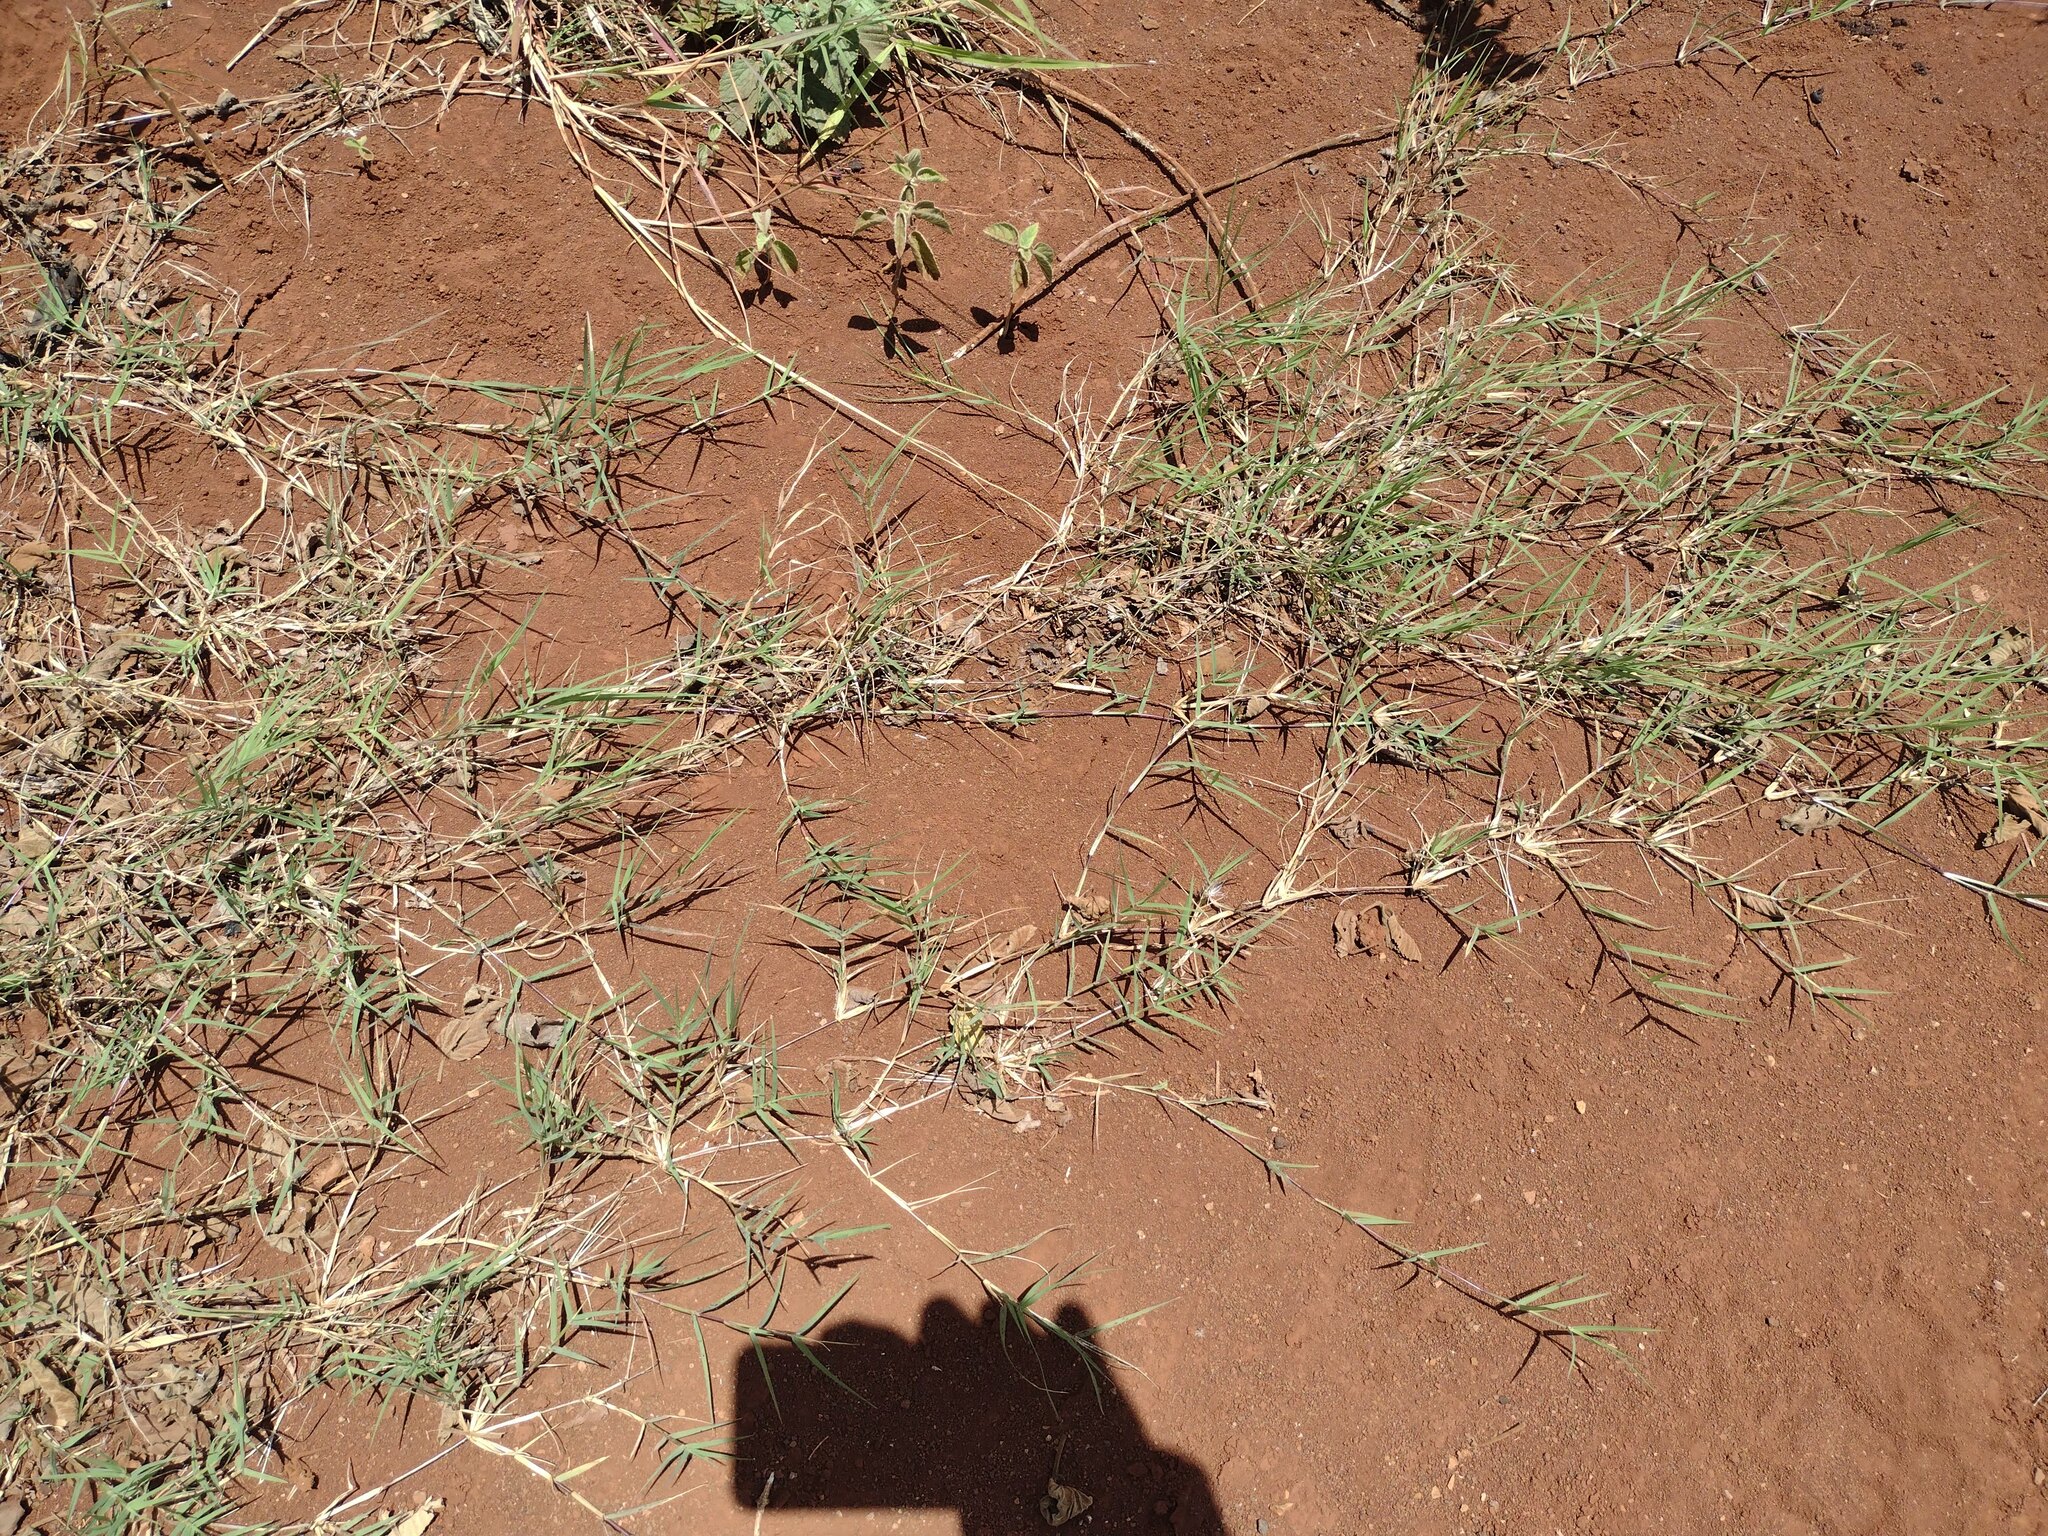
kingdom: Plantae
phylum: Tracheophyta
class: Liliopsida
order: Poales
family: Poaceae
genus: Cynodon
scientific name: Cynodon dactylon
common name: Bermuda grass
